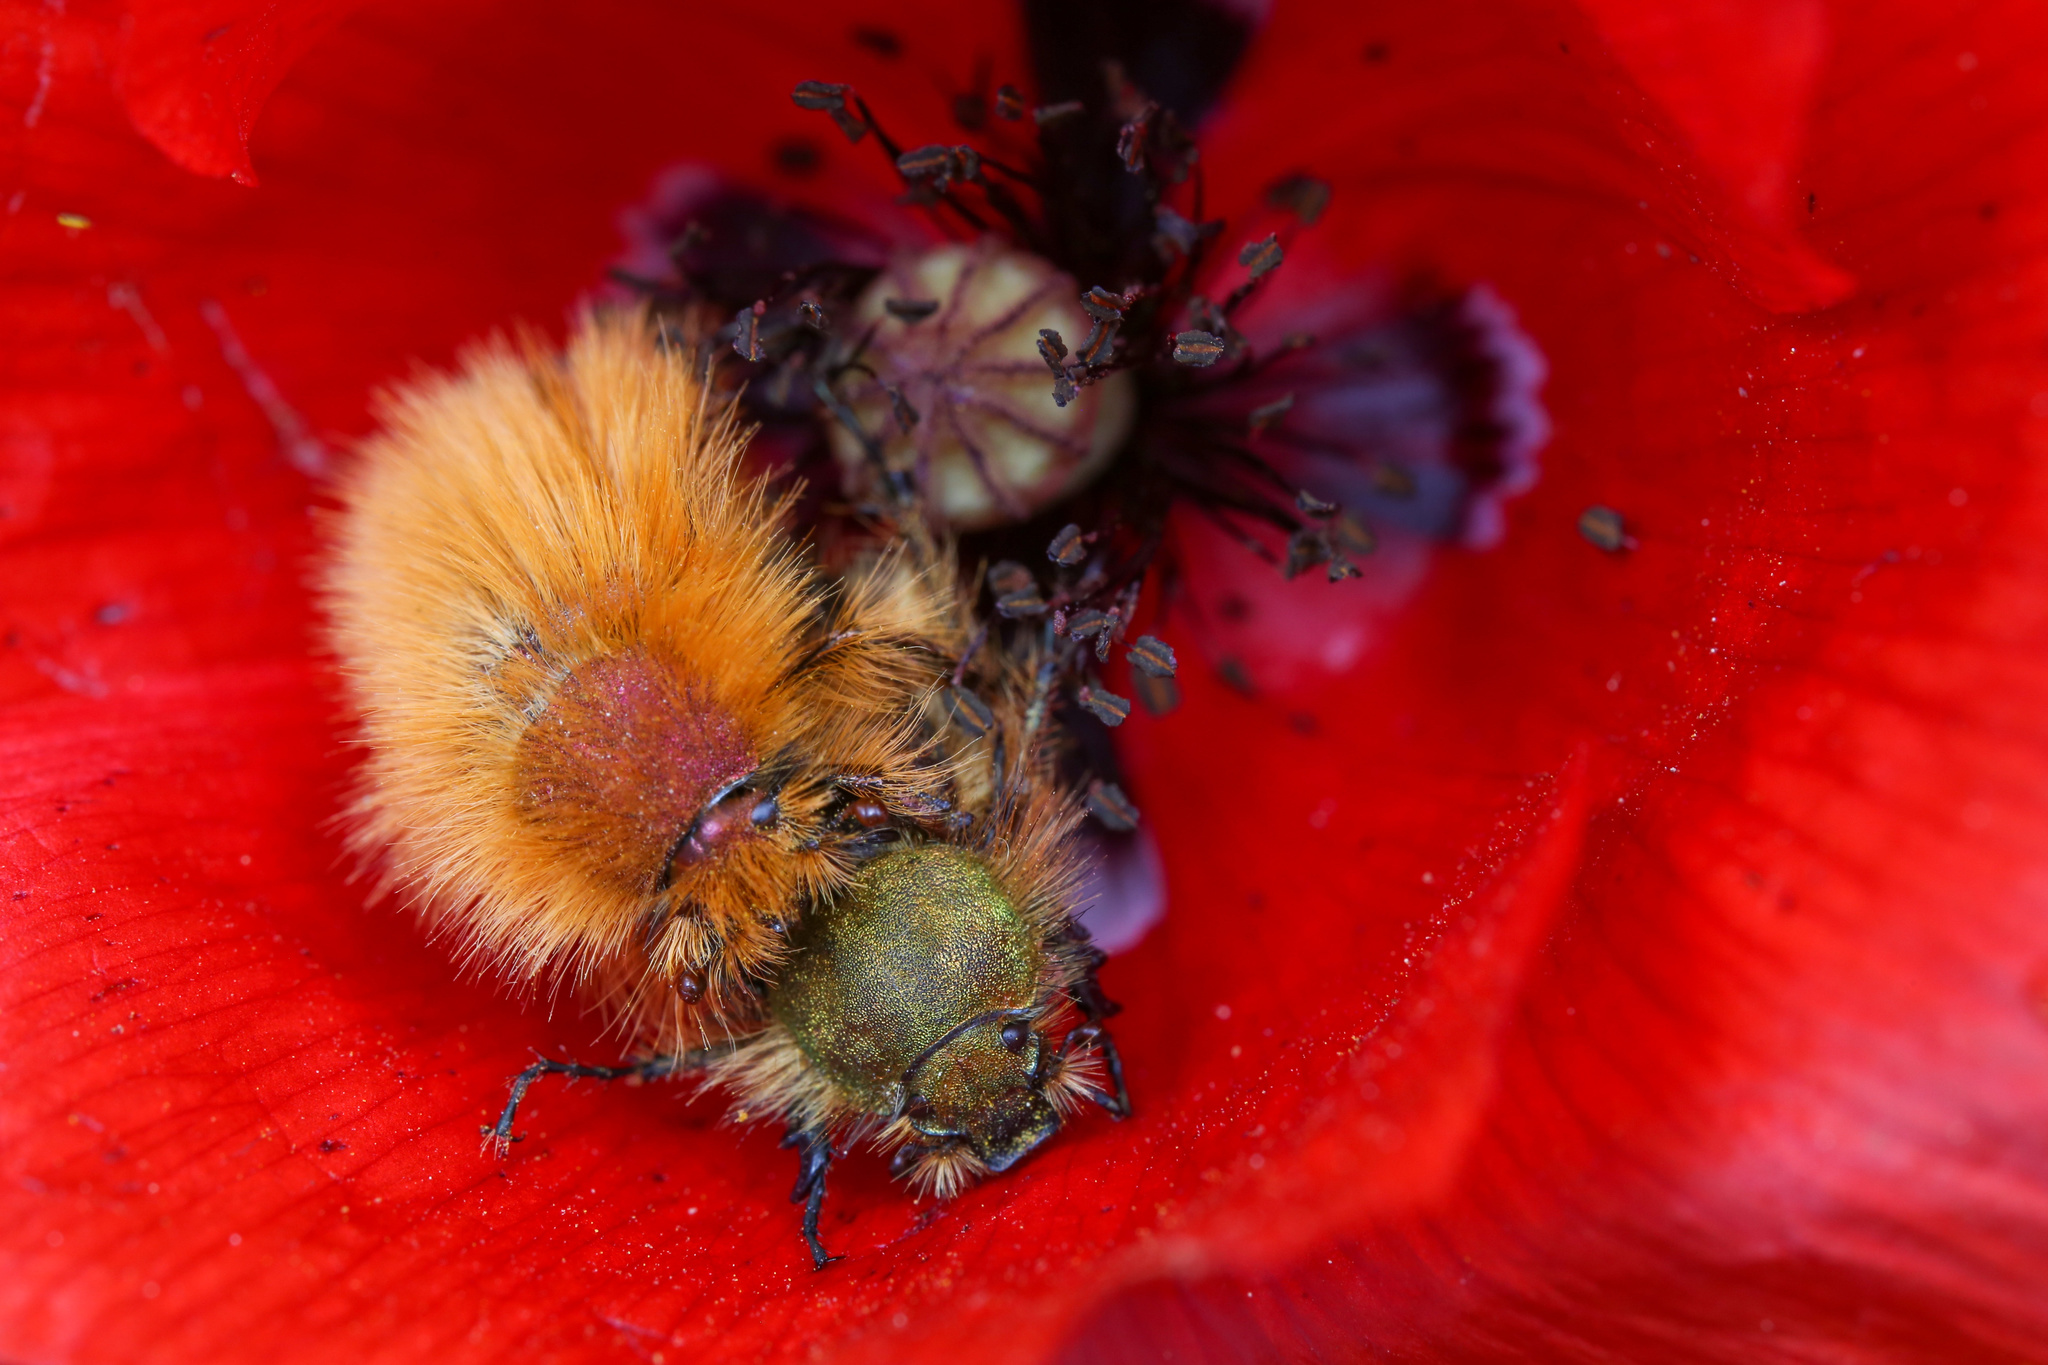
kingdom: Animalia
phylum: Arthropoda
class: Insecta
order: Coleoptera
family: Glaphyridae
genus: Pygopleurus
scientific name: Pygopleurus vulpes
